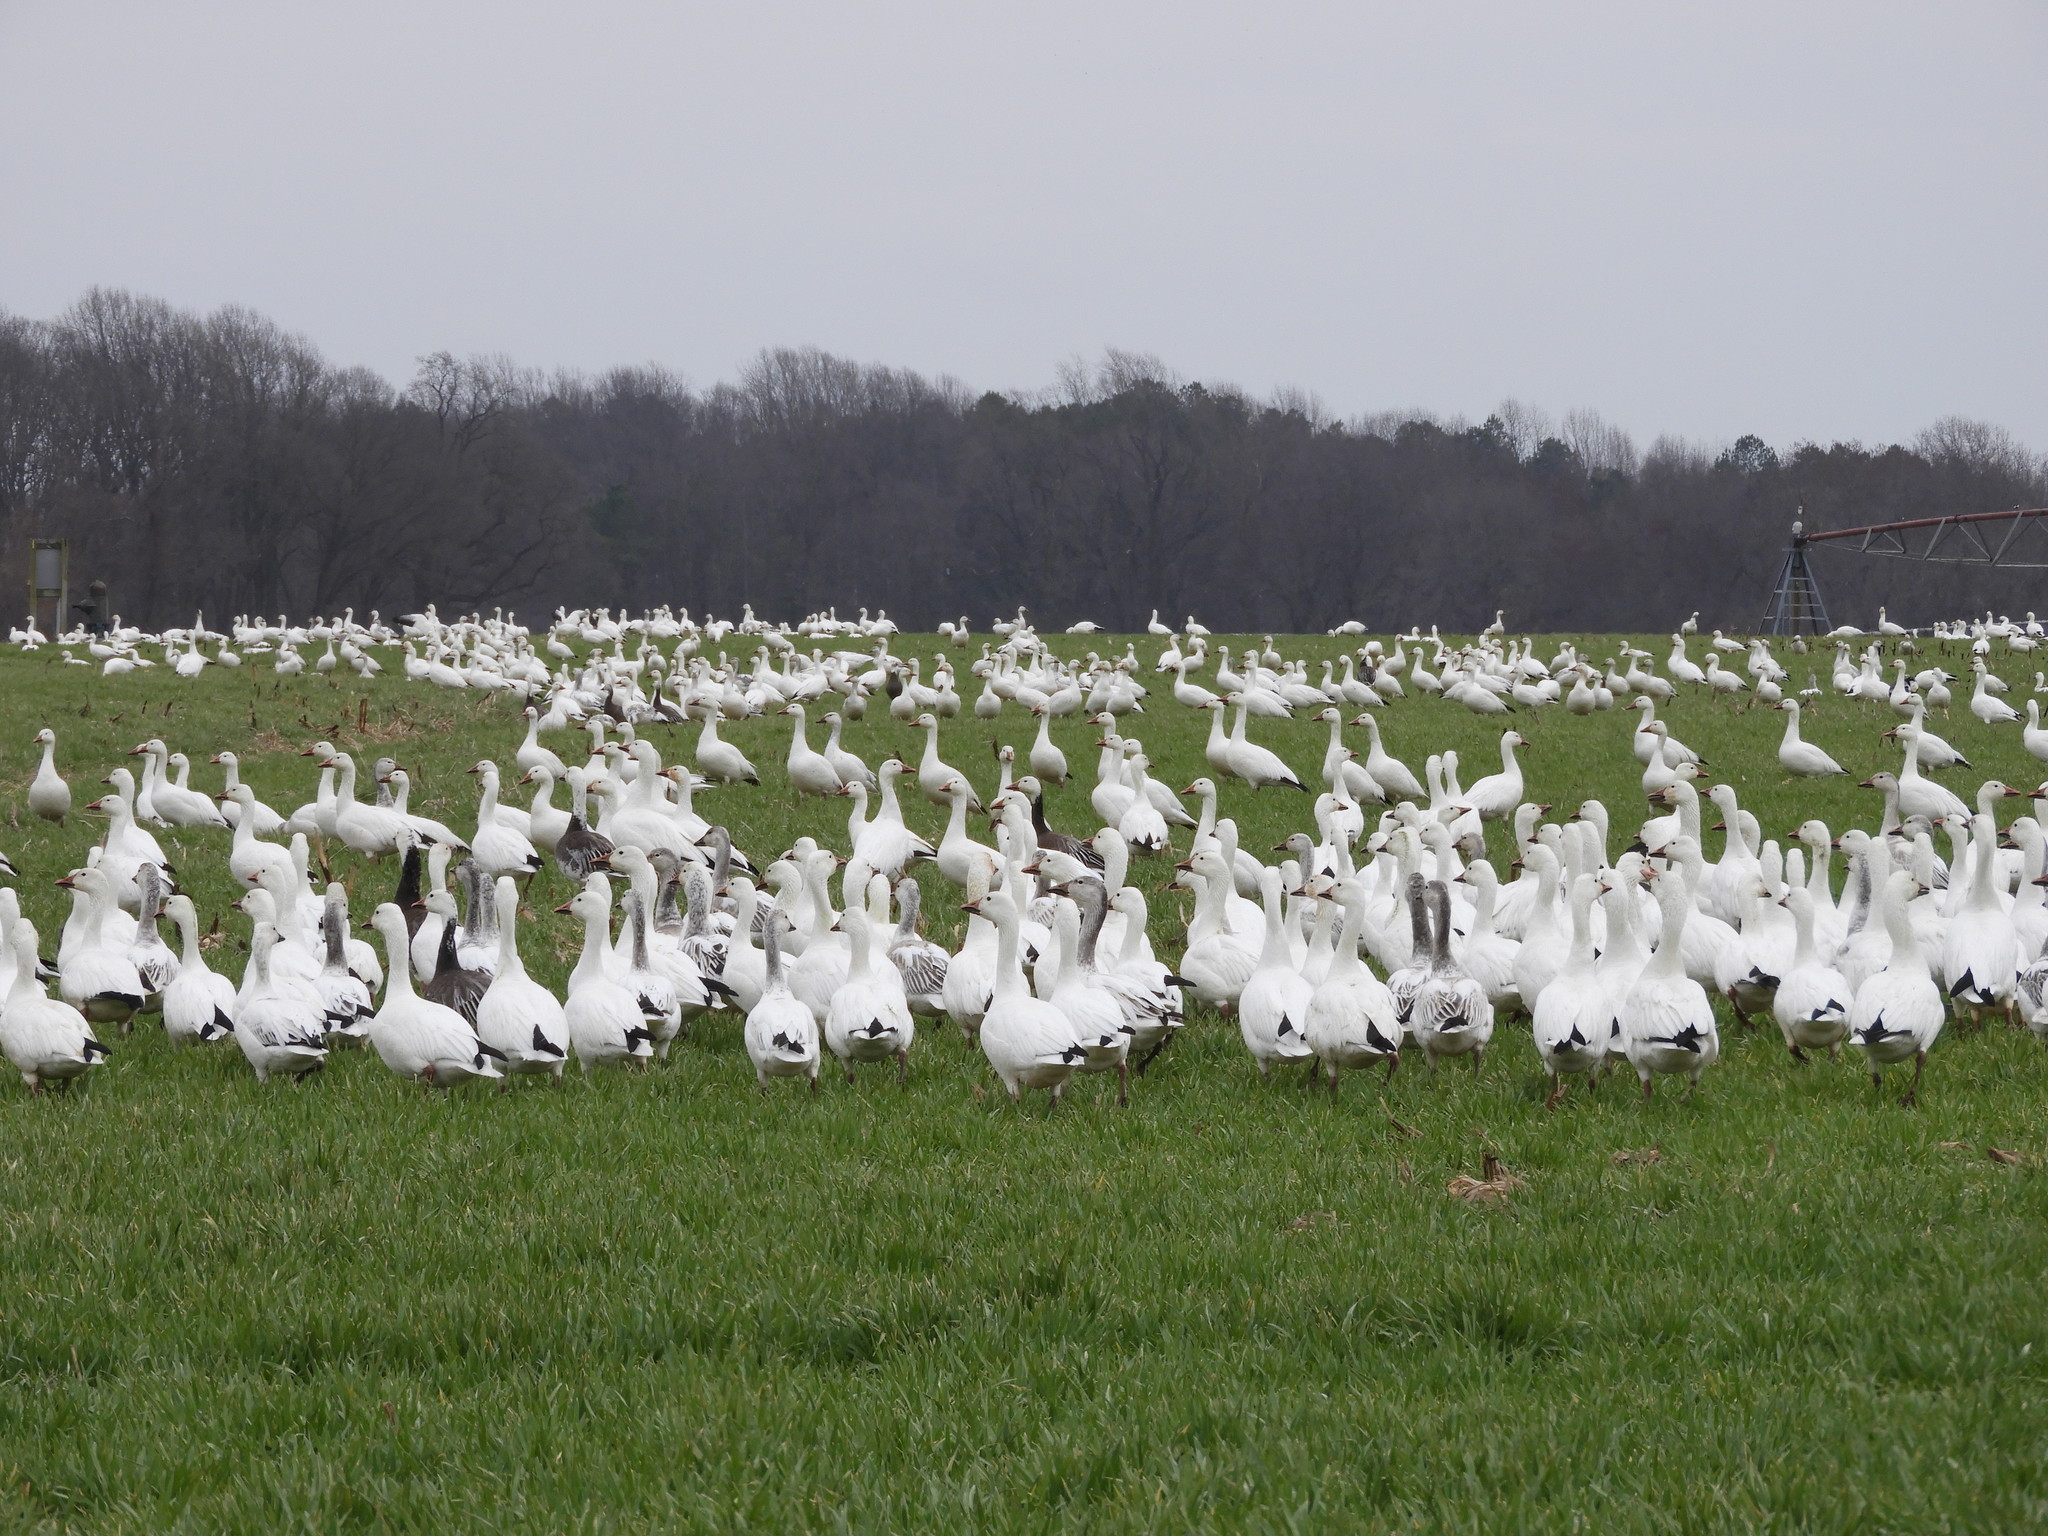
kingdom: Animalia
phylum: Chordata
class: Aves
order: Anseriformes
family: Anatidae
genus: Anser
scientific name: Anser caerulescens
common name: Snow goose
